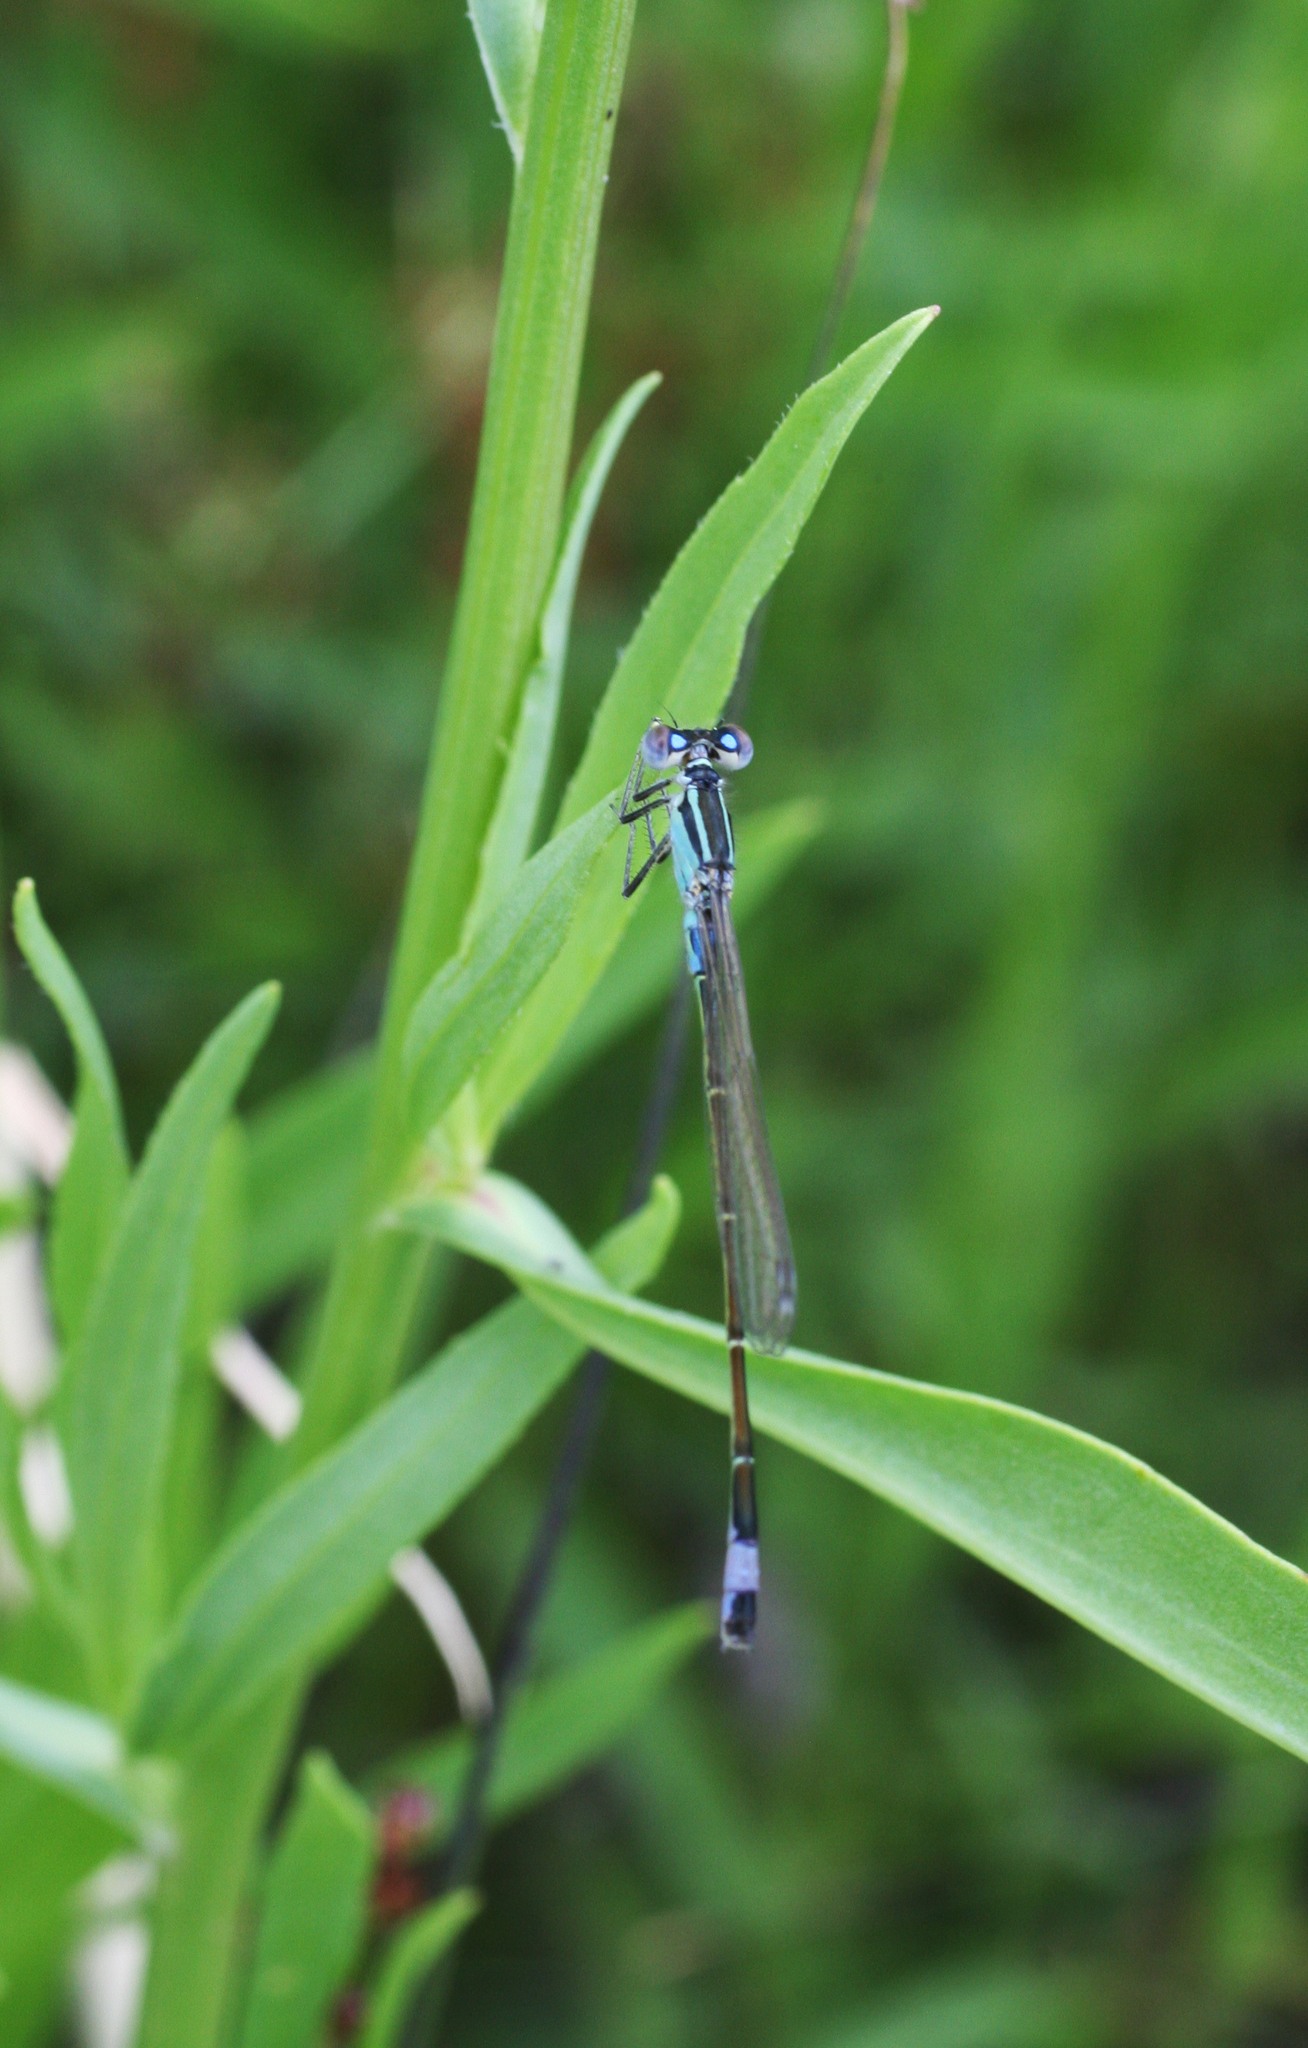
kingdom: Animalia
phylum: Arthropoda
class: Insecta
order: Odonata
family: Coenagrionidae
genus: Ischnura
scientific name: Ischnura elegans
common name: Blue-tailed damselfly
